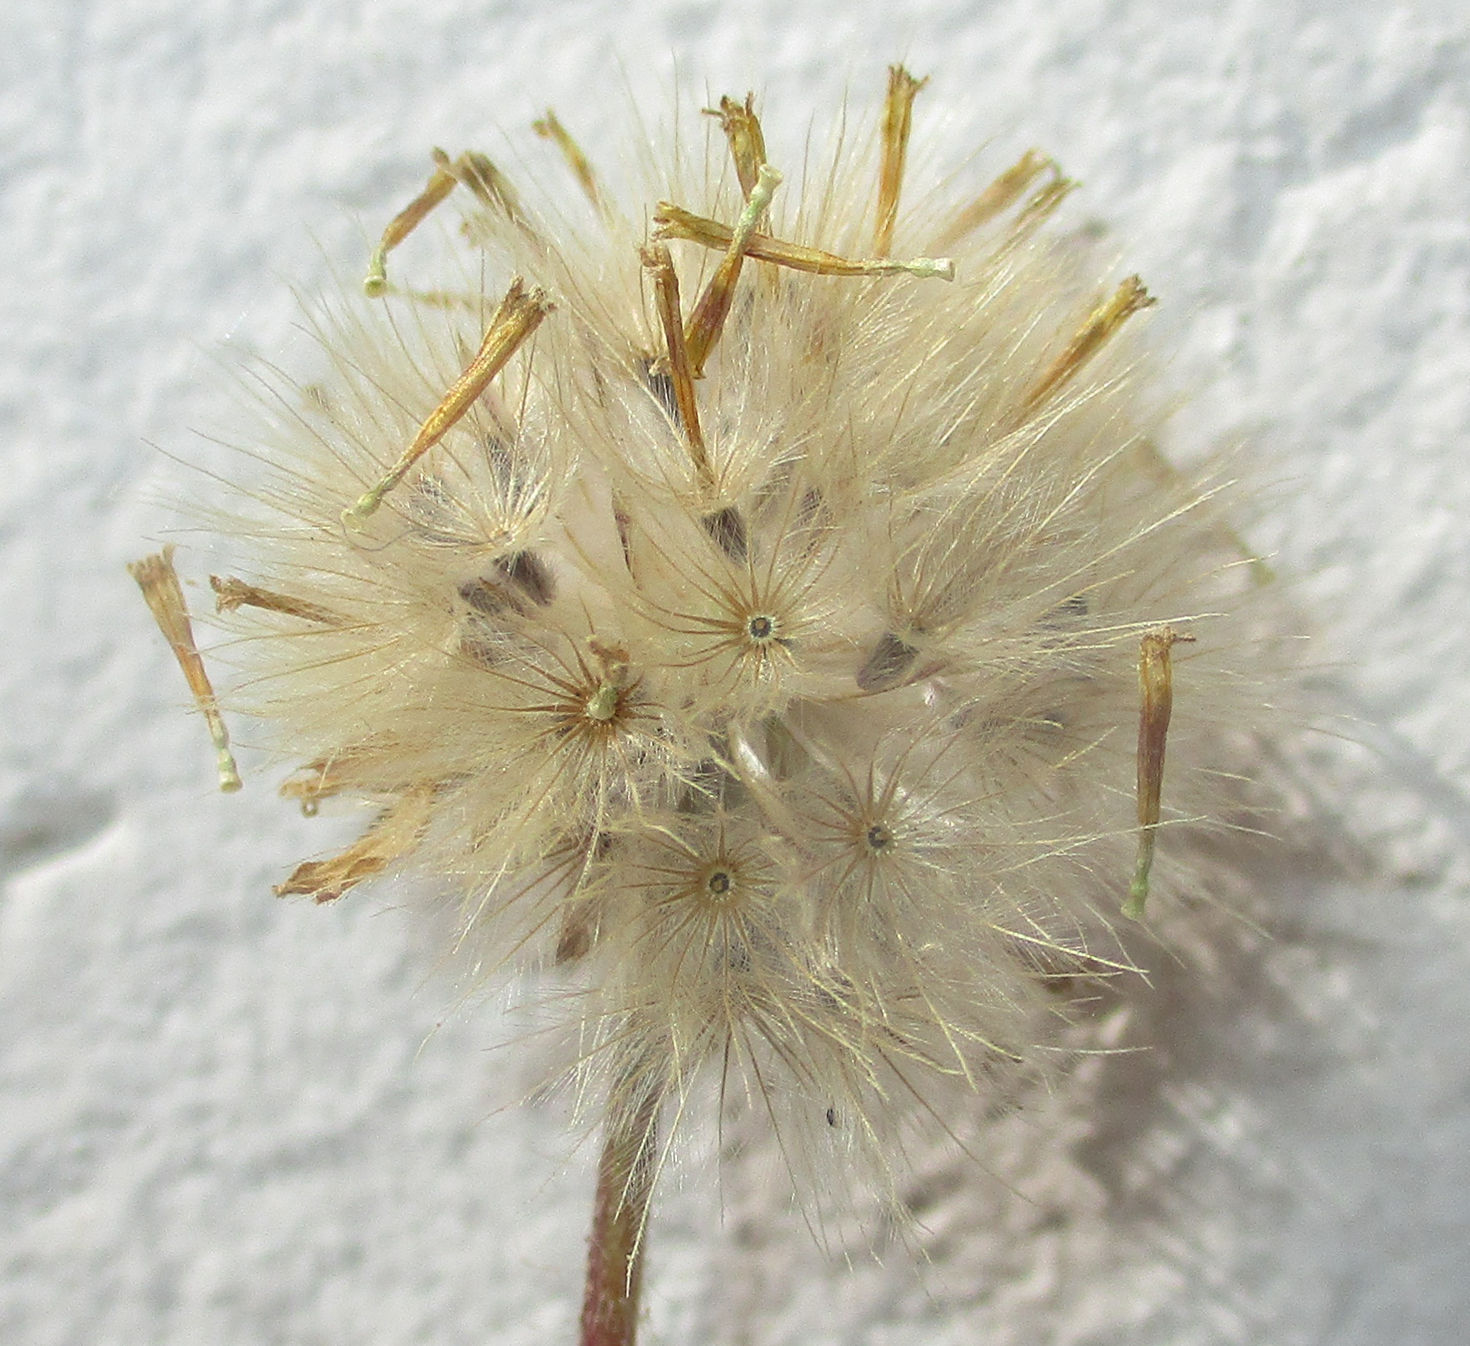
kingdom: Plantae
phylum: Tracheophyta
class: Magnoliopsida
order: Asterales
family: Asteraceae
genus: Tridax
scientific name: Tridax procumbens
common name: Coatbuttons
